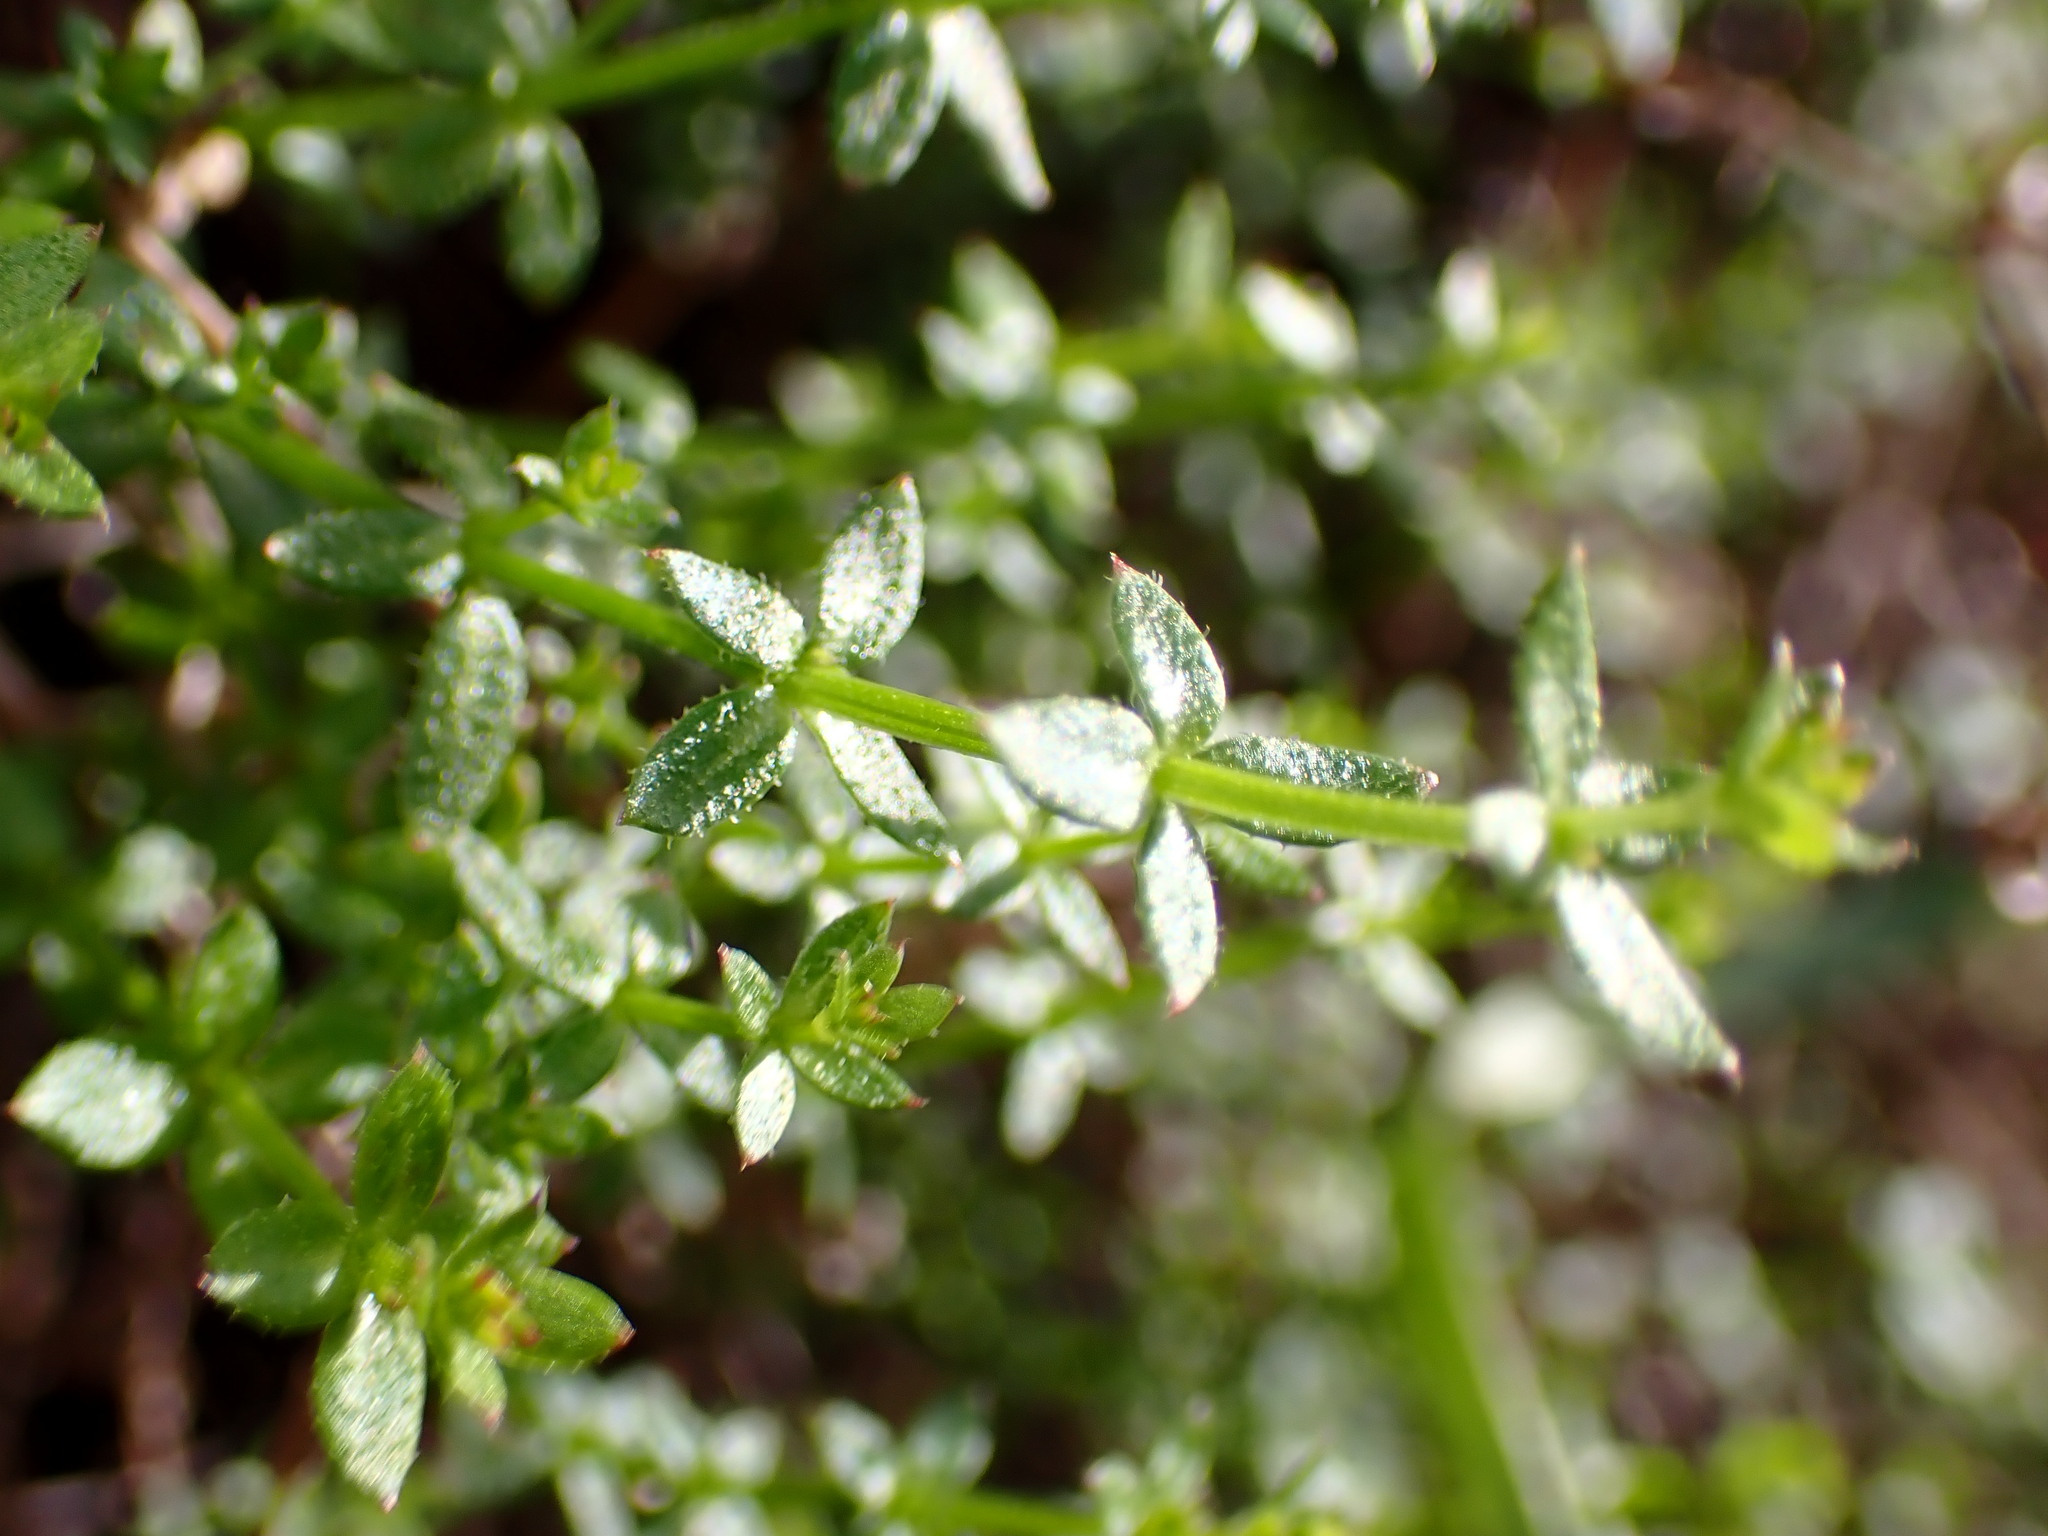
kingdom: Plantae
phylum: Tracheophyta
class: Magnoliopsida
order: Gentianales
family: Rubiaceae
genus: Galium
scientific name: Galium porrigens
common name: Climbing bedstraw
